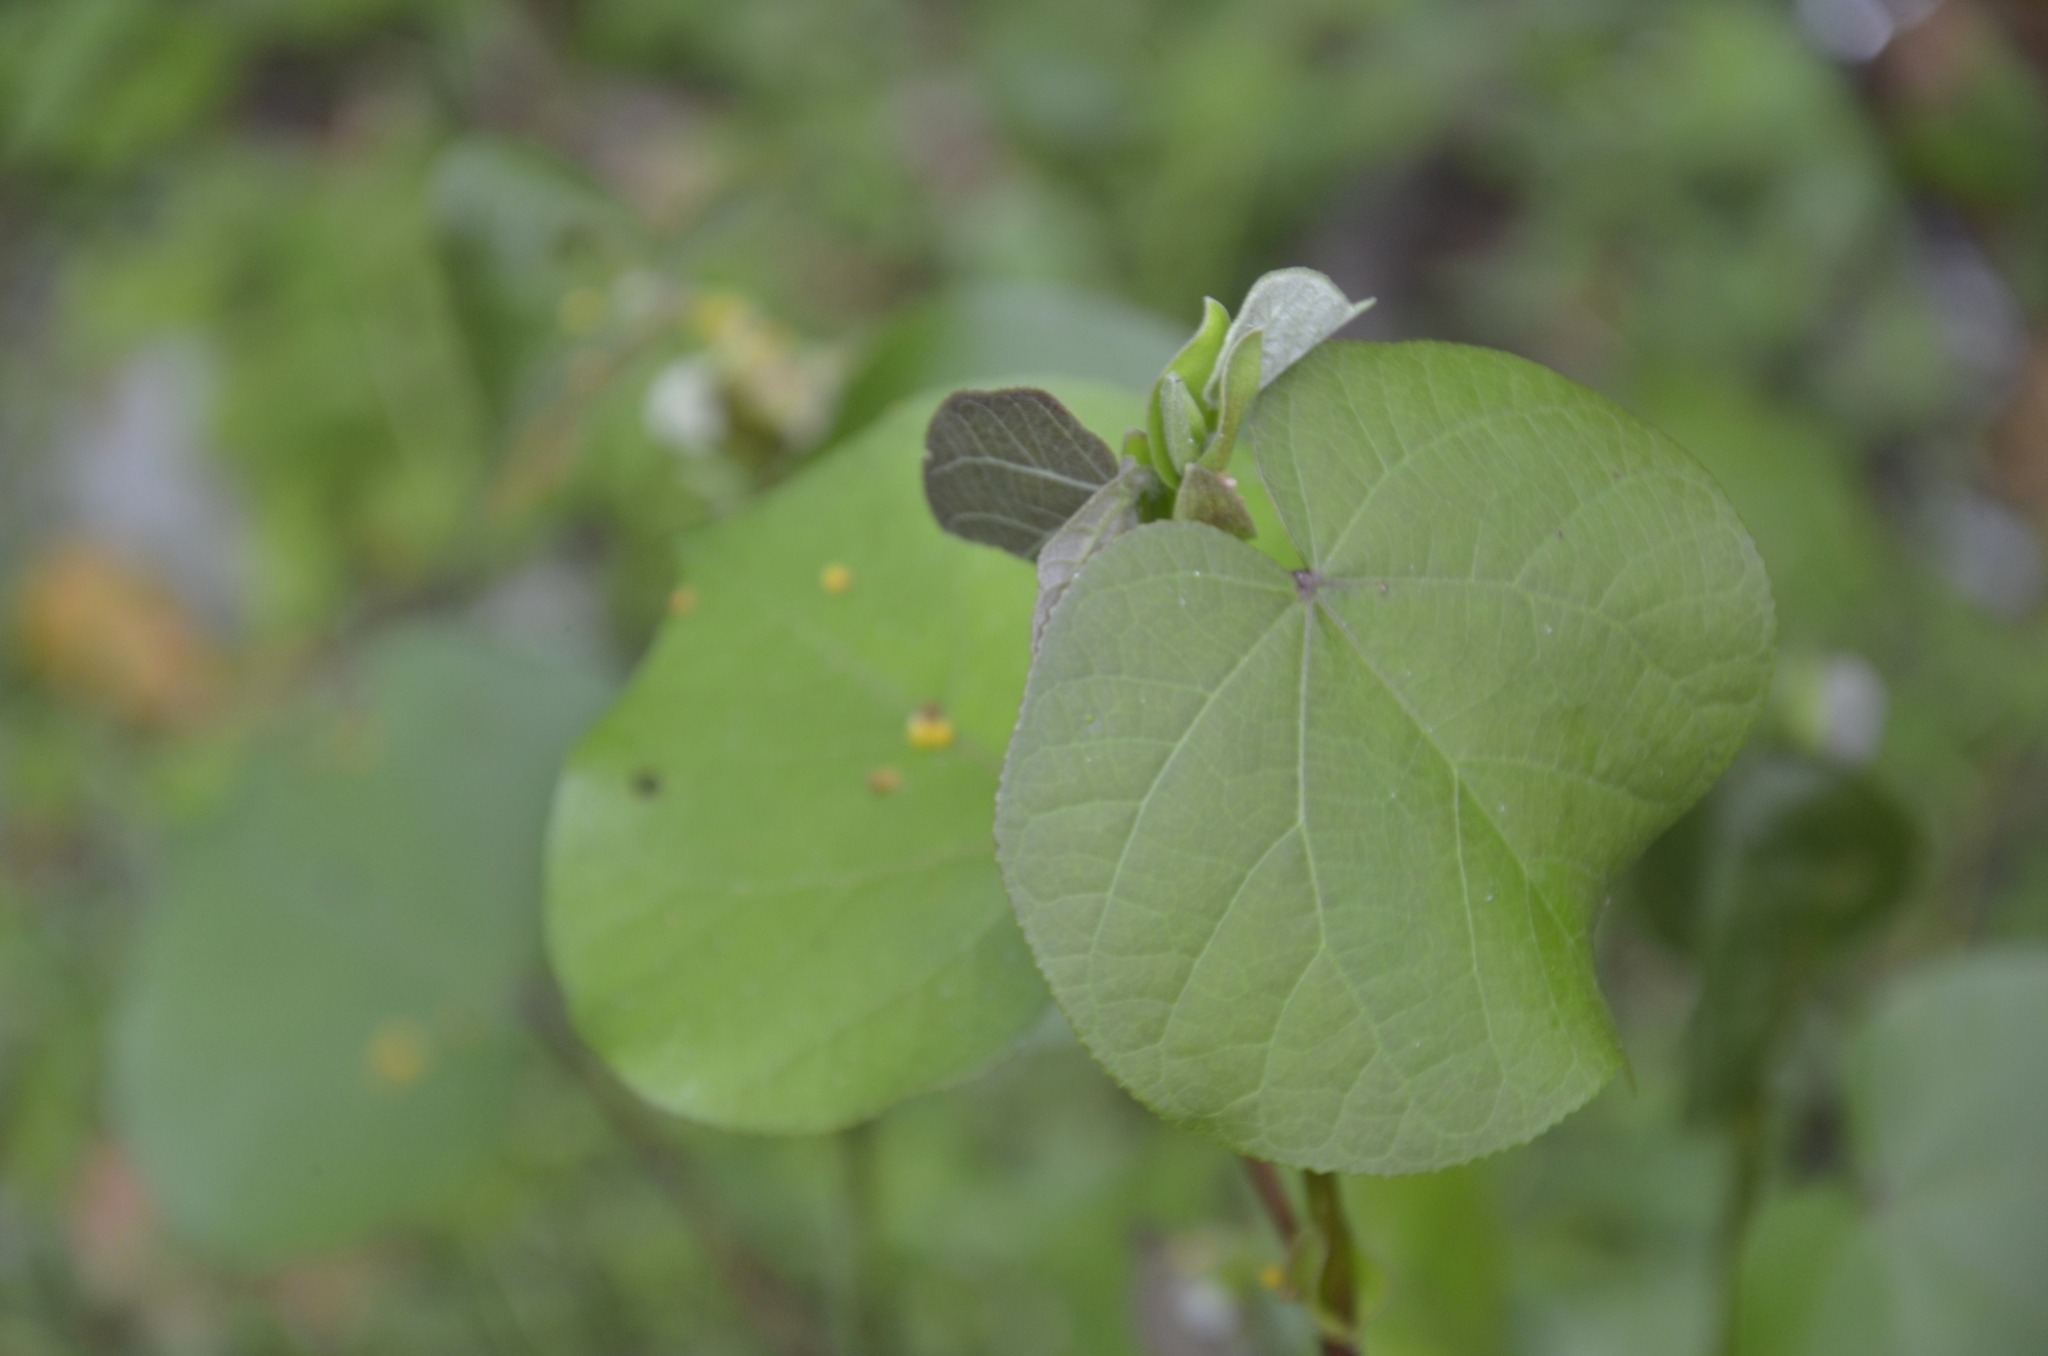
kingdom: Plantae
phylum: Tracheophyta
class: Magnoliopsida
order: Malvales
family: Malvaceae
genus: Talipariti
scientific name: Talipariti tiliaceum
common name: Sea hibiscus
